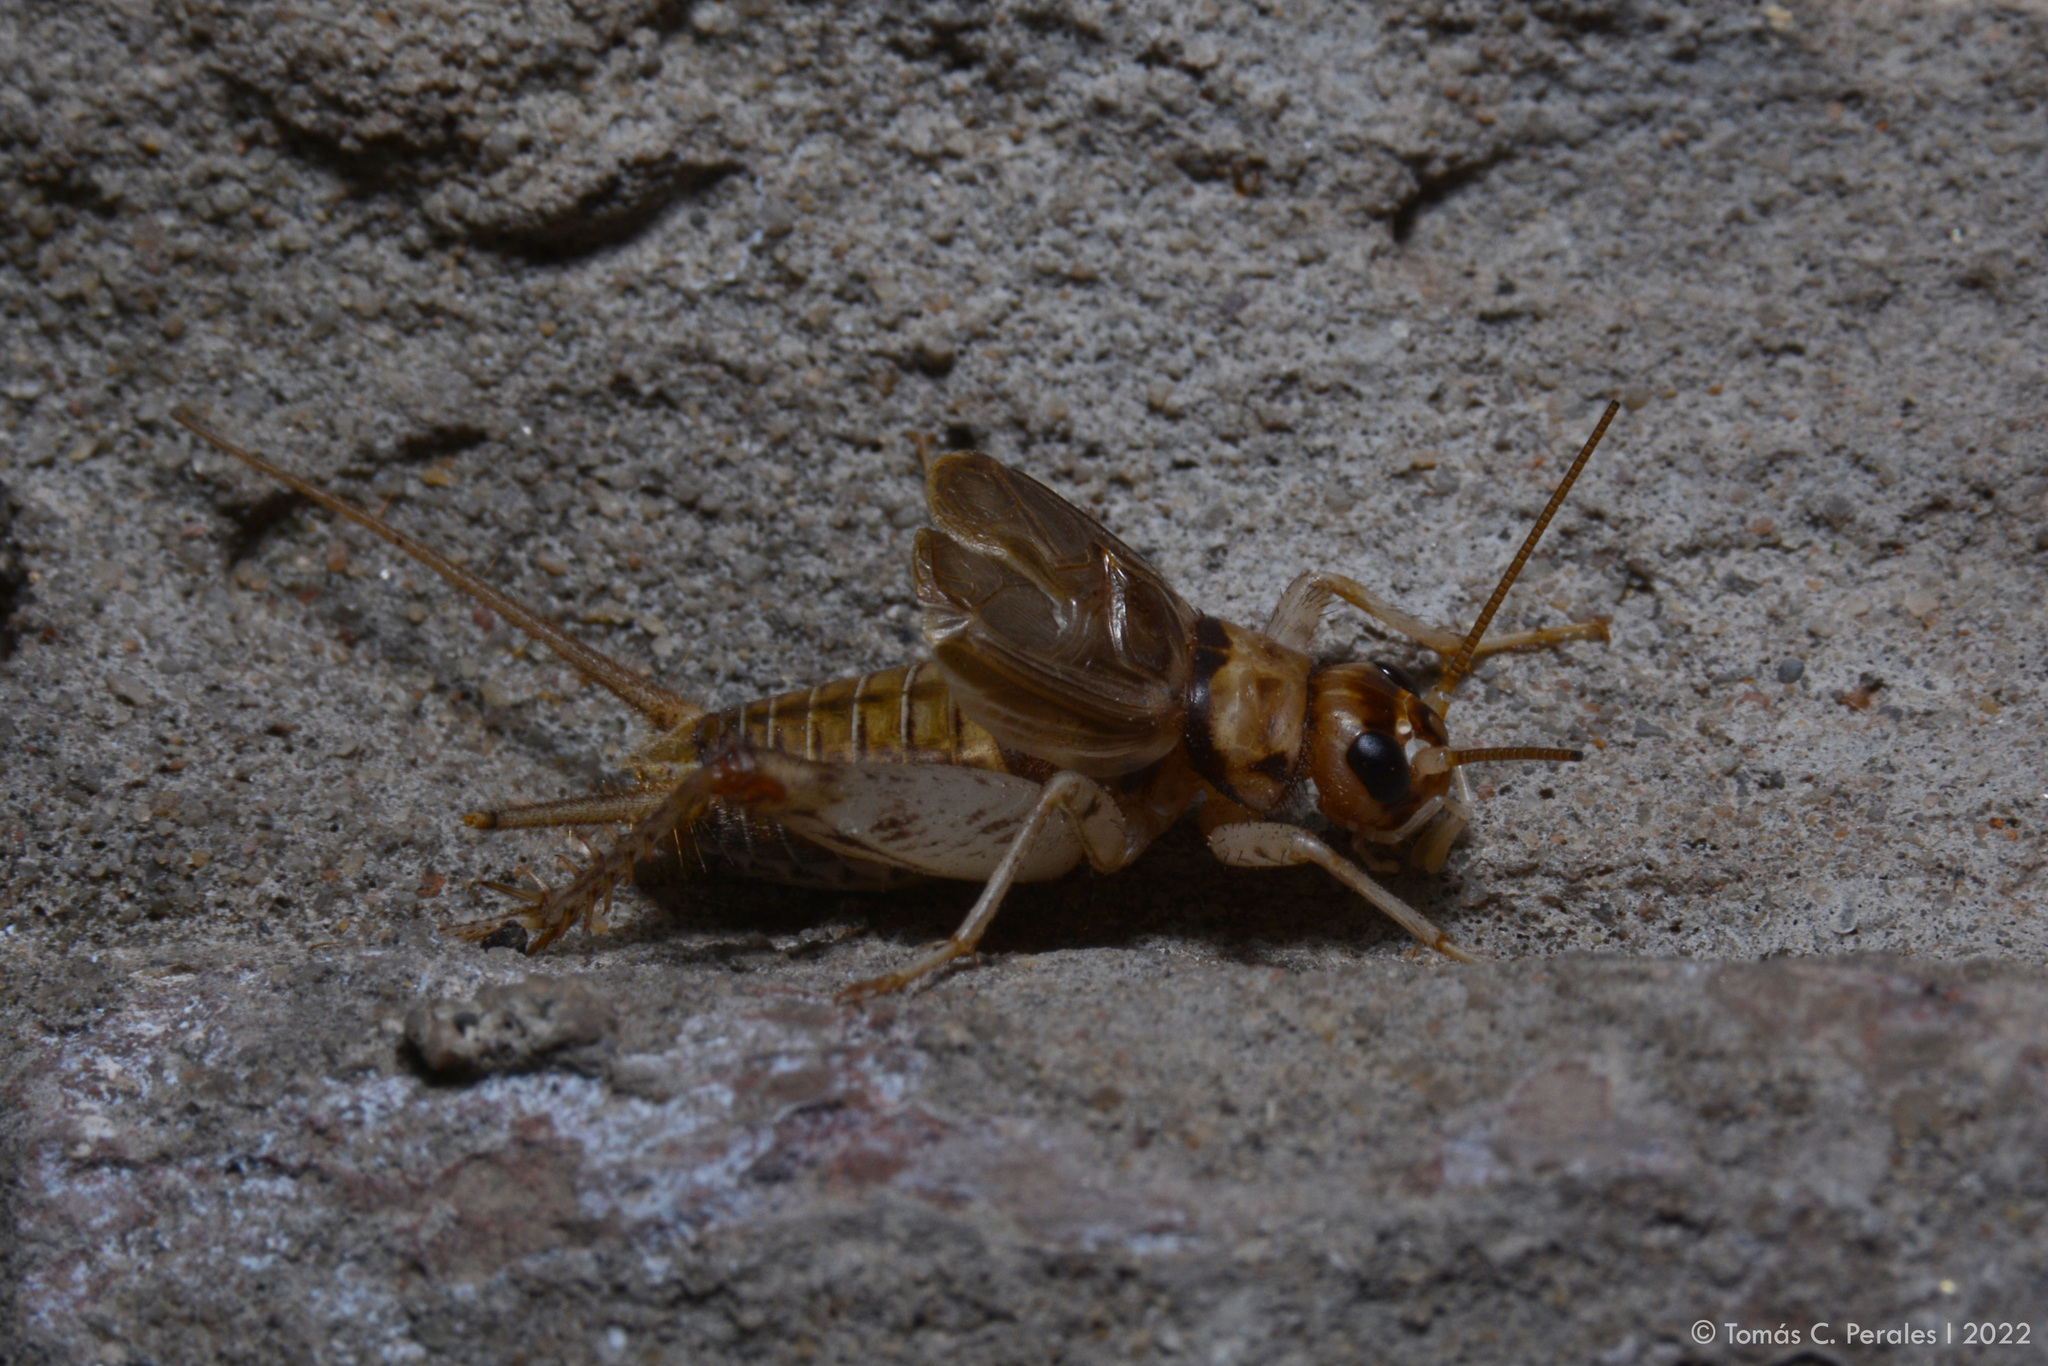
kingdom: Animalia
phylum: Arthropoda
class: Insecta
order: Orthoptera
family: Gryllidae
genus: Gryllodes
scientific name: Gryllodes sigillatus
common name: Tropical house cricket
